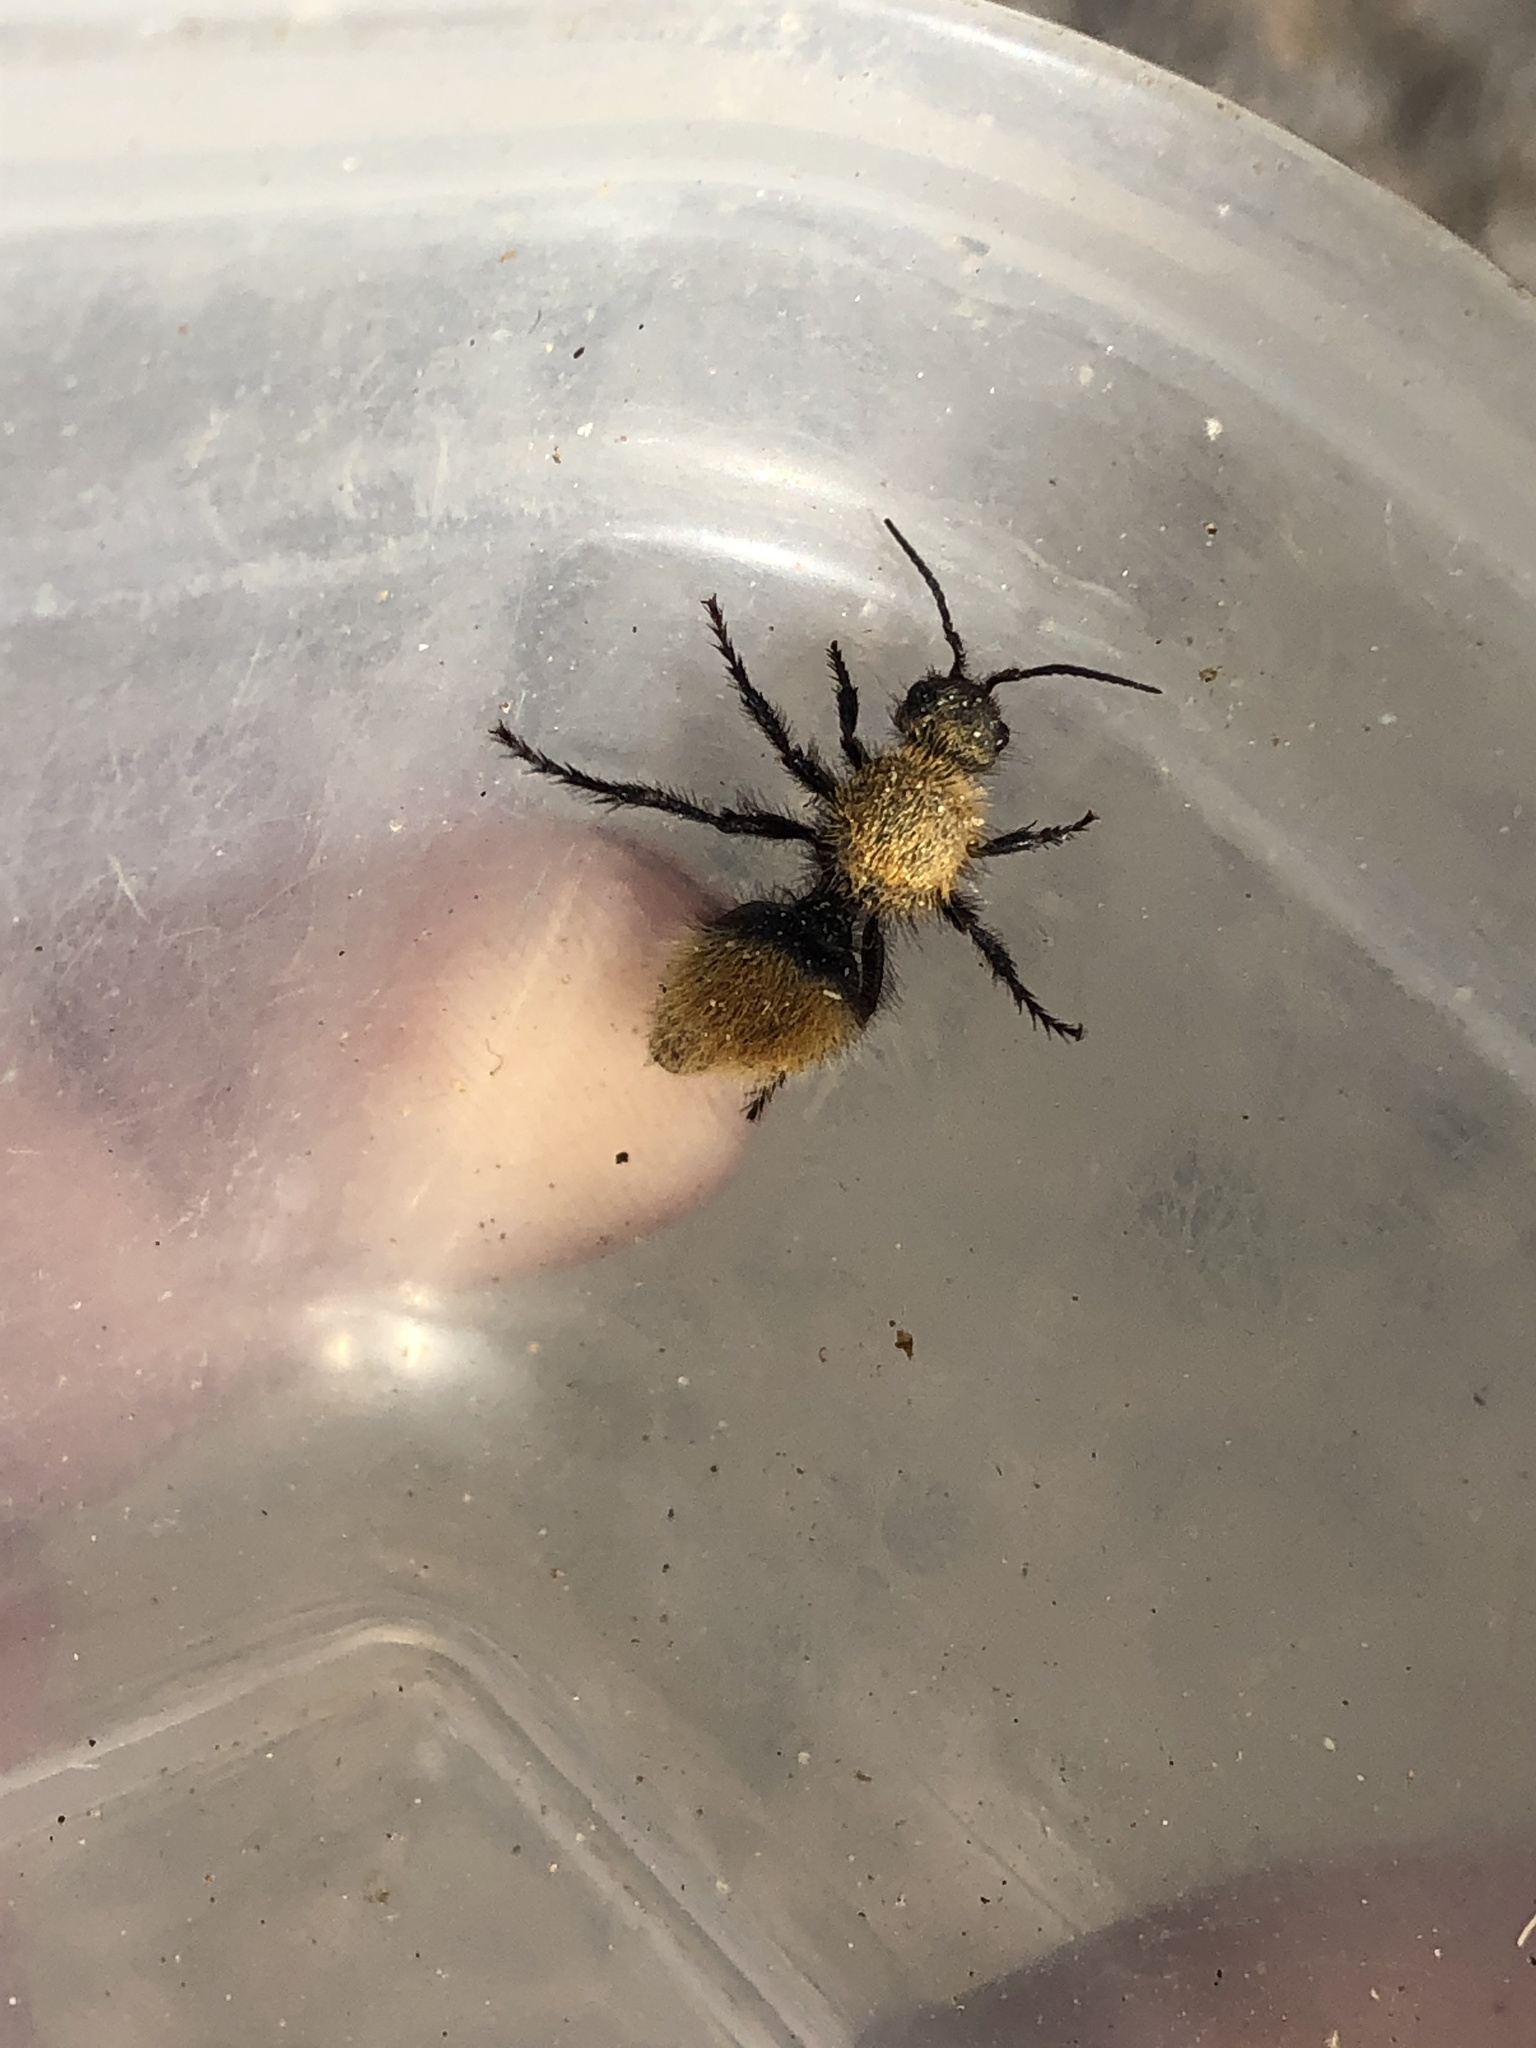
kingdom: Animalia
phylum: Arthropoda
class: Insecta
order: Hymenoptera
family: Mutillidae
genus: Dasymutilla
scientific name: Dasymutilla vestita
